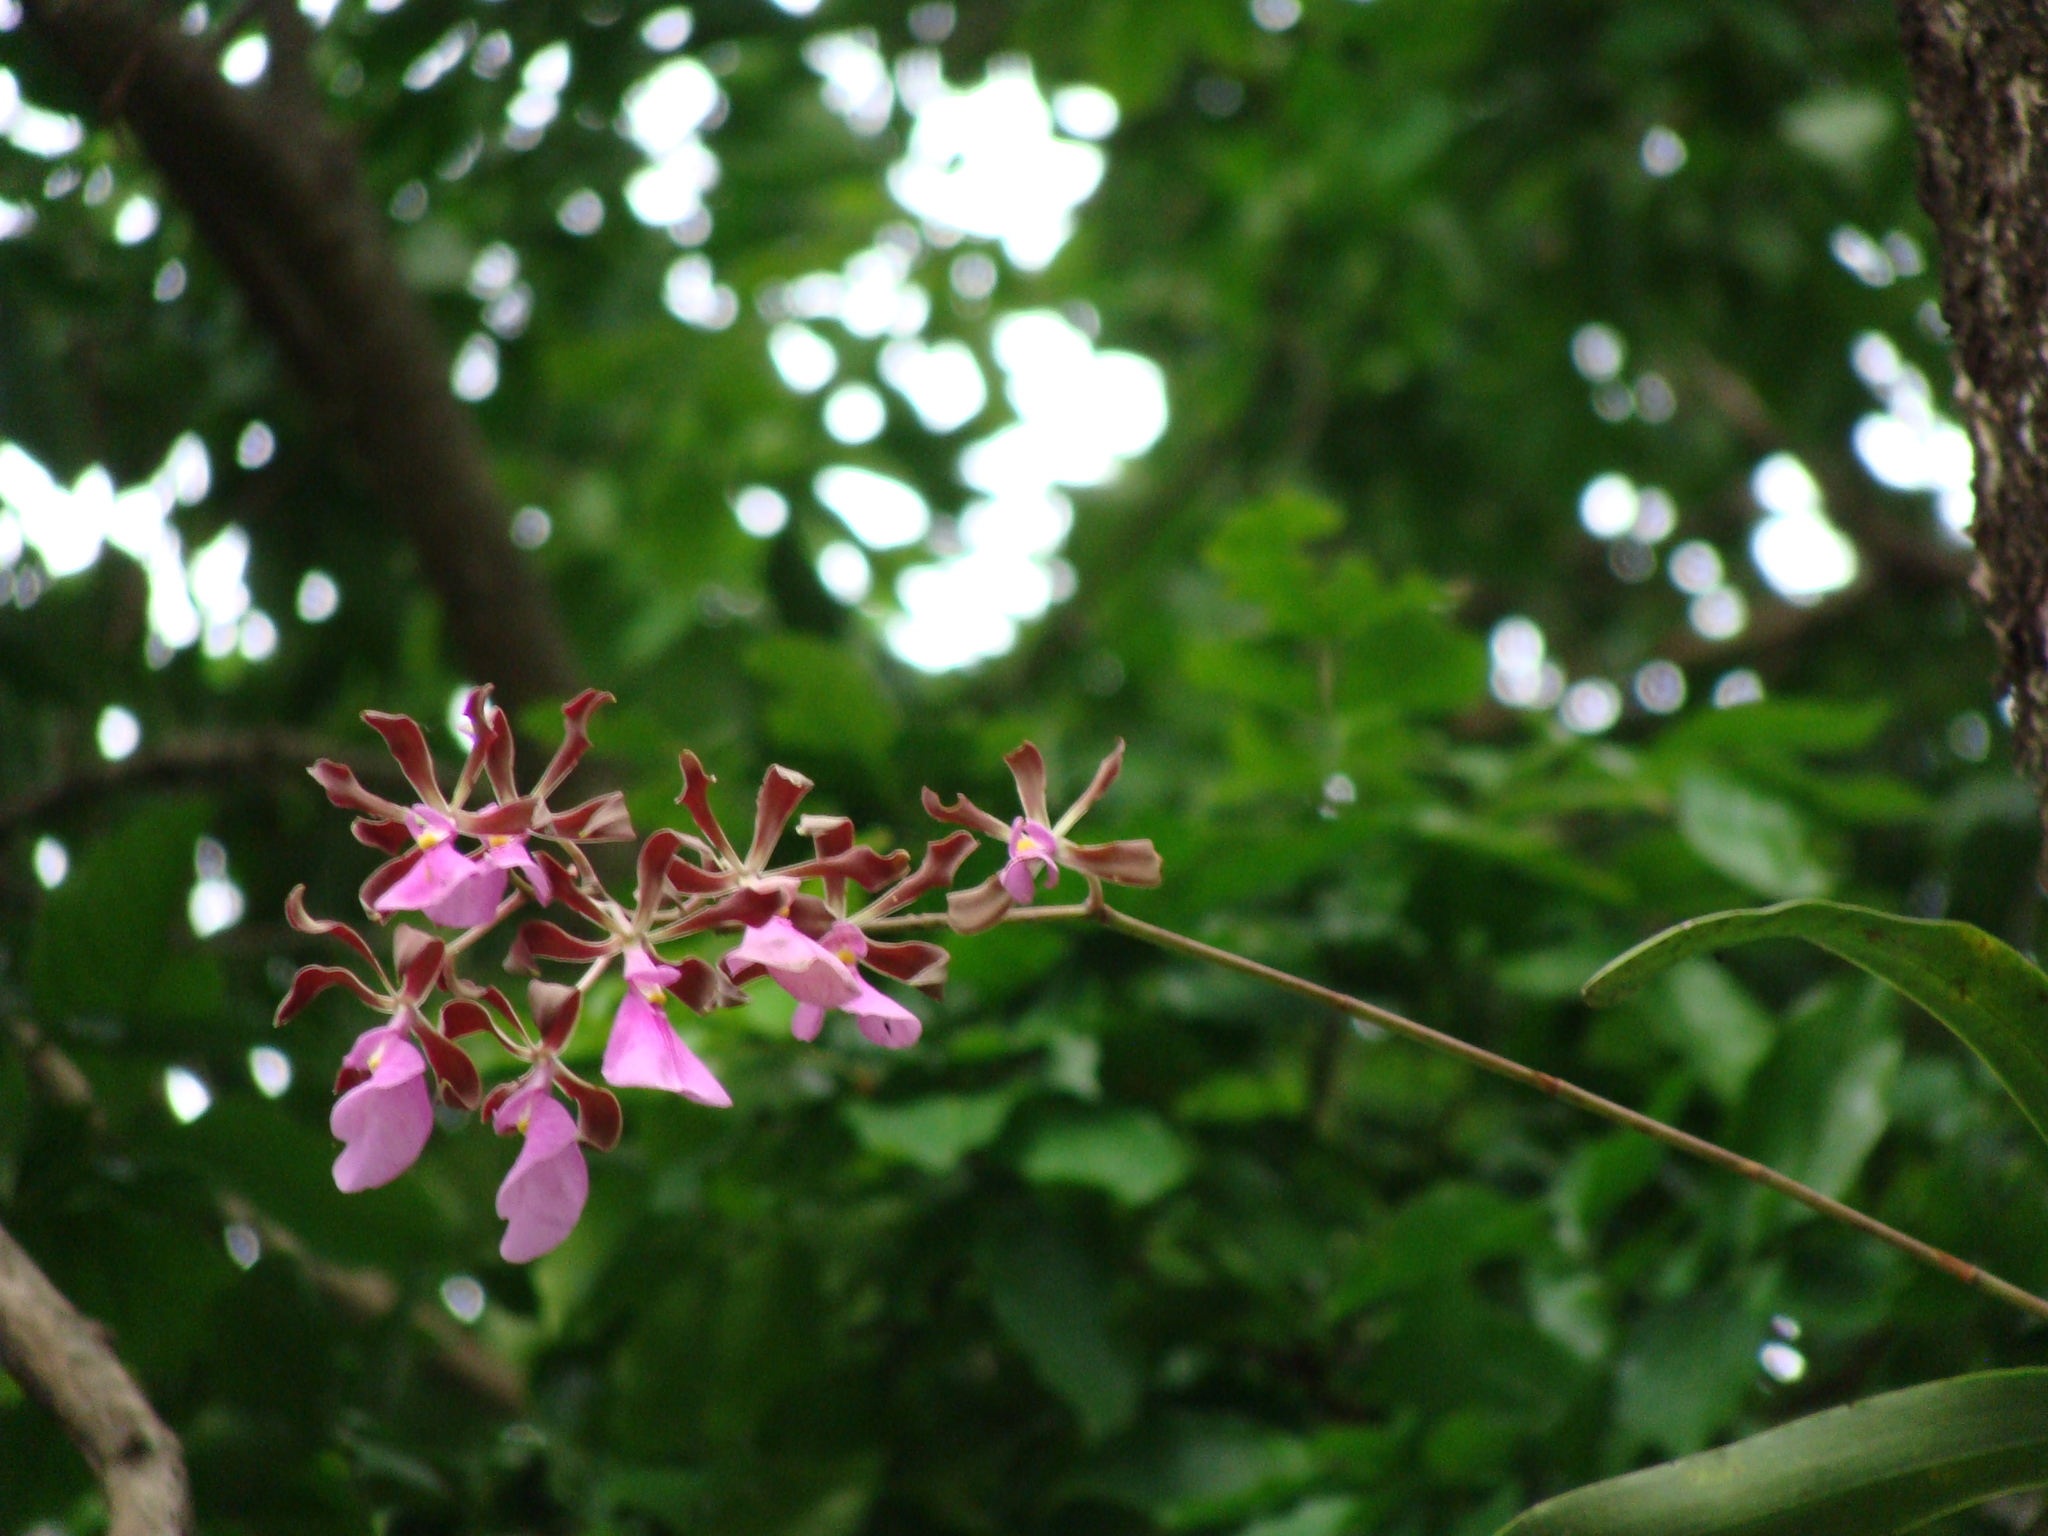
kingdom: Plantae
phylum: Tracheophyta
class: Liliopsida
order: Asparagales
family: Orchidaceae
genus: Encyclia
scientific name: Encyclia cordigera
